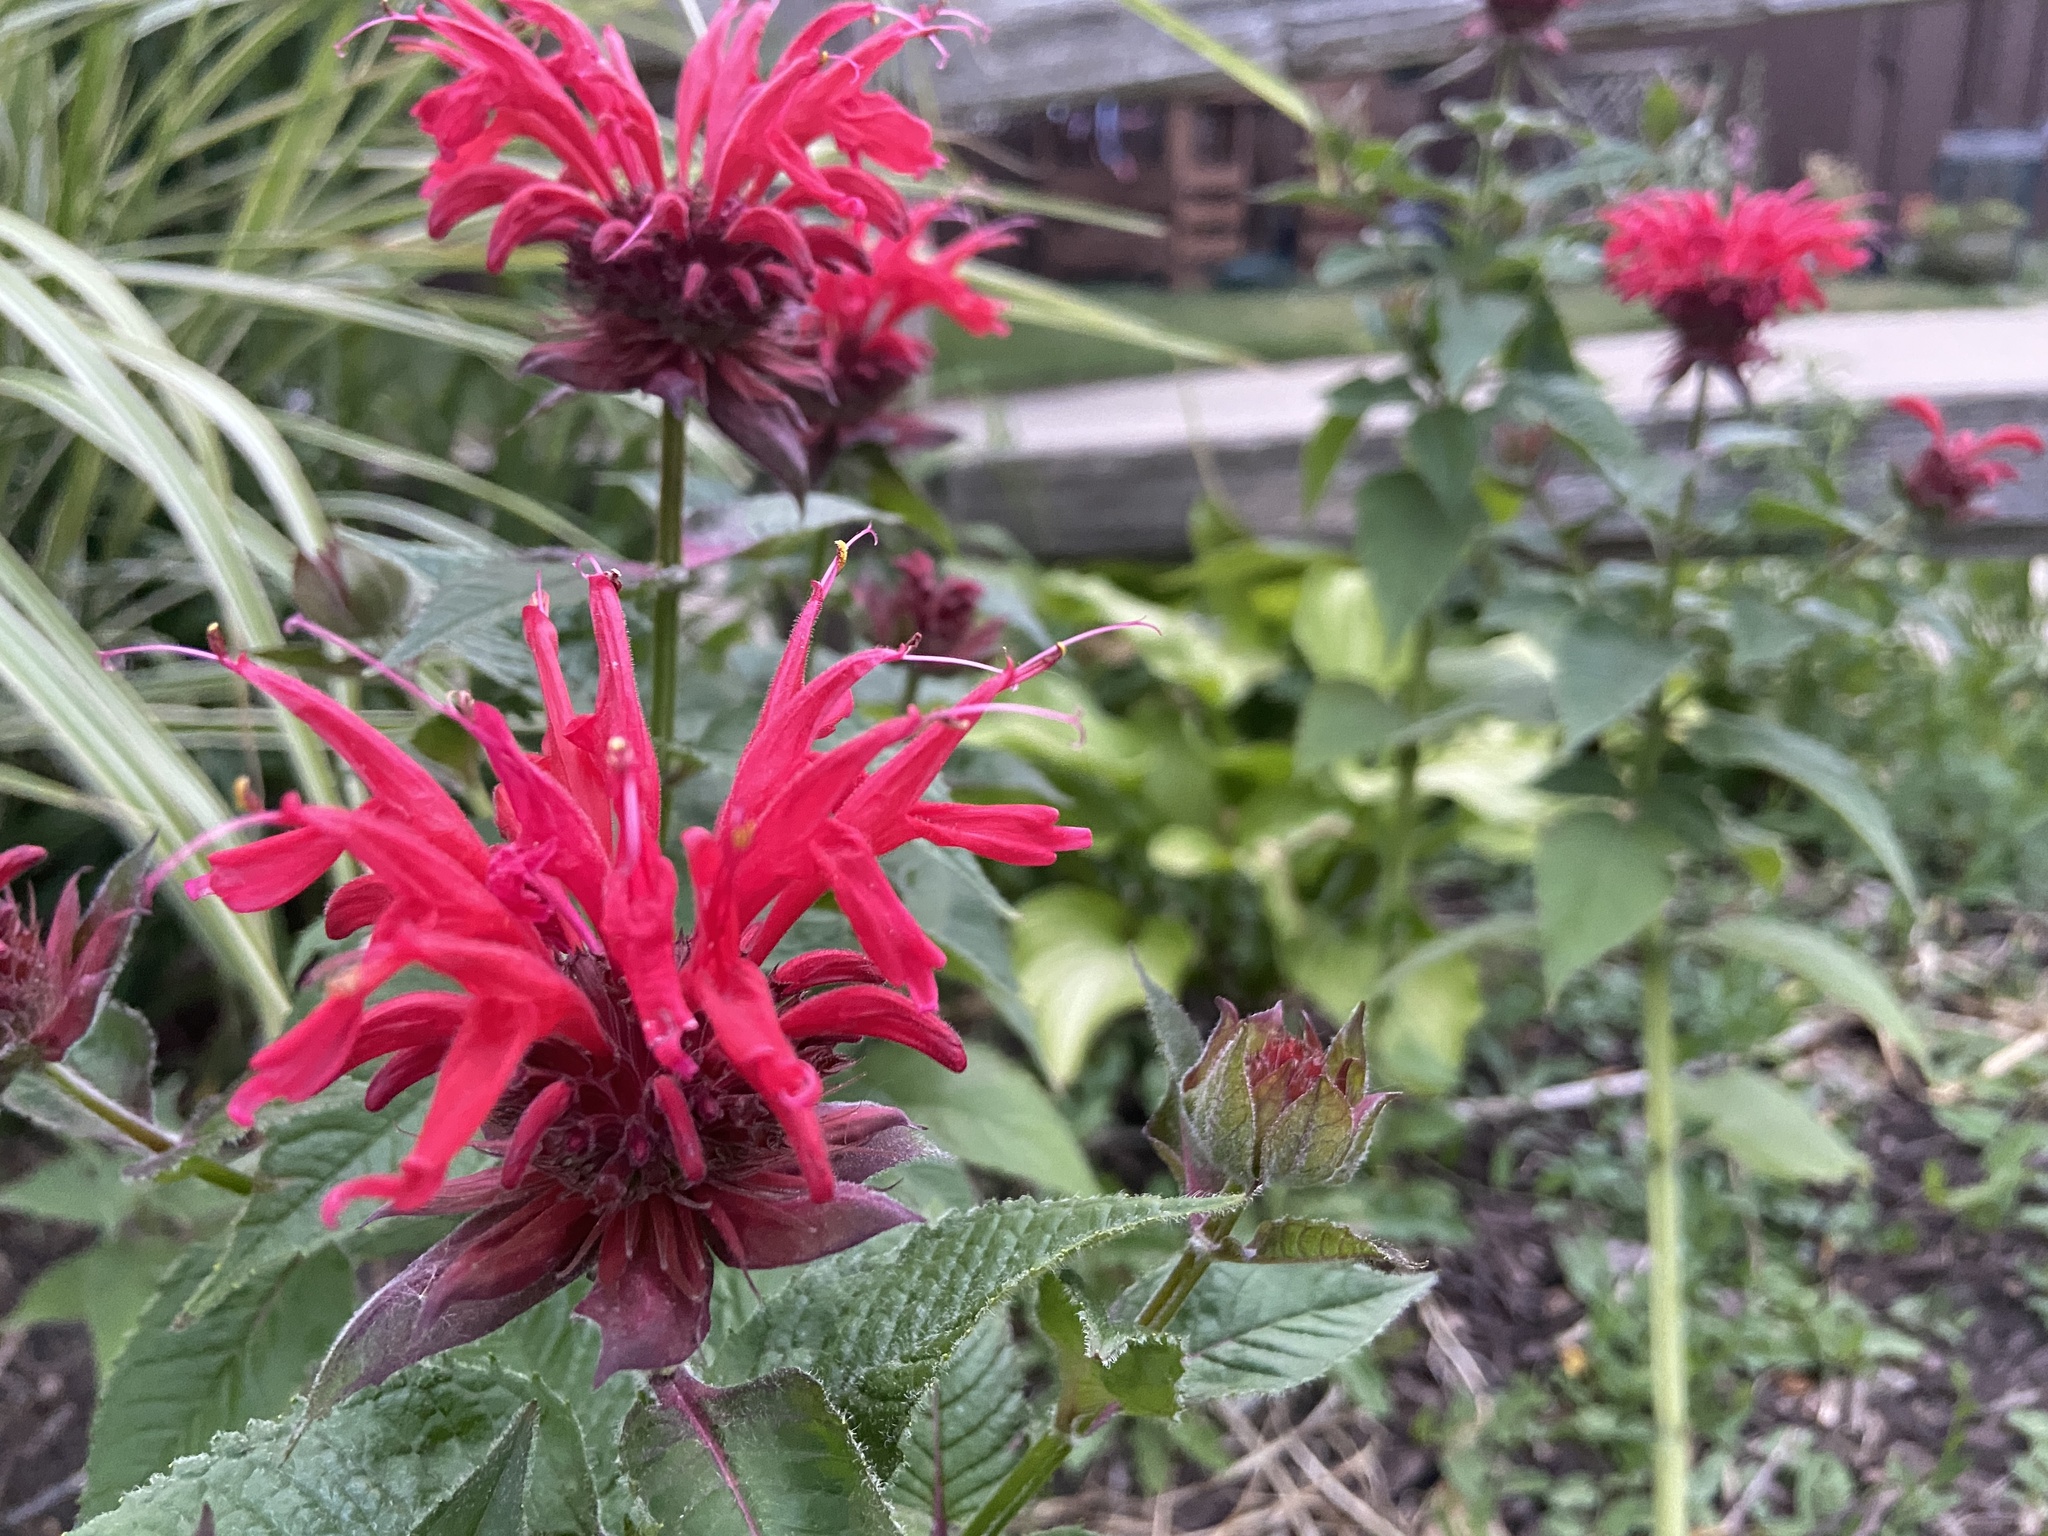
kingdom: Plantae
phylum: Tracheophyta
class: Magnoliopsida
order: Lamiales
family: Lamiaceae
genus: Monarda
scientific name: Monarda didyma
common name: Beebalm
